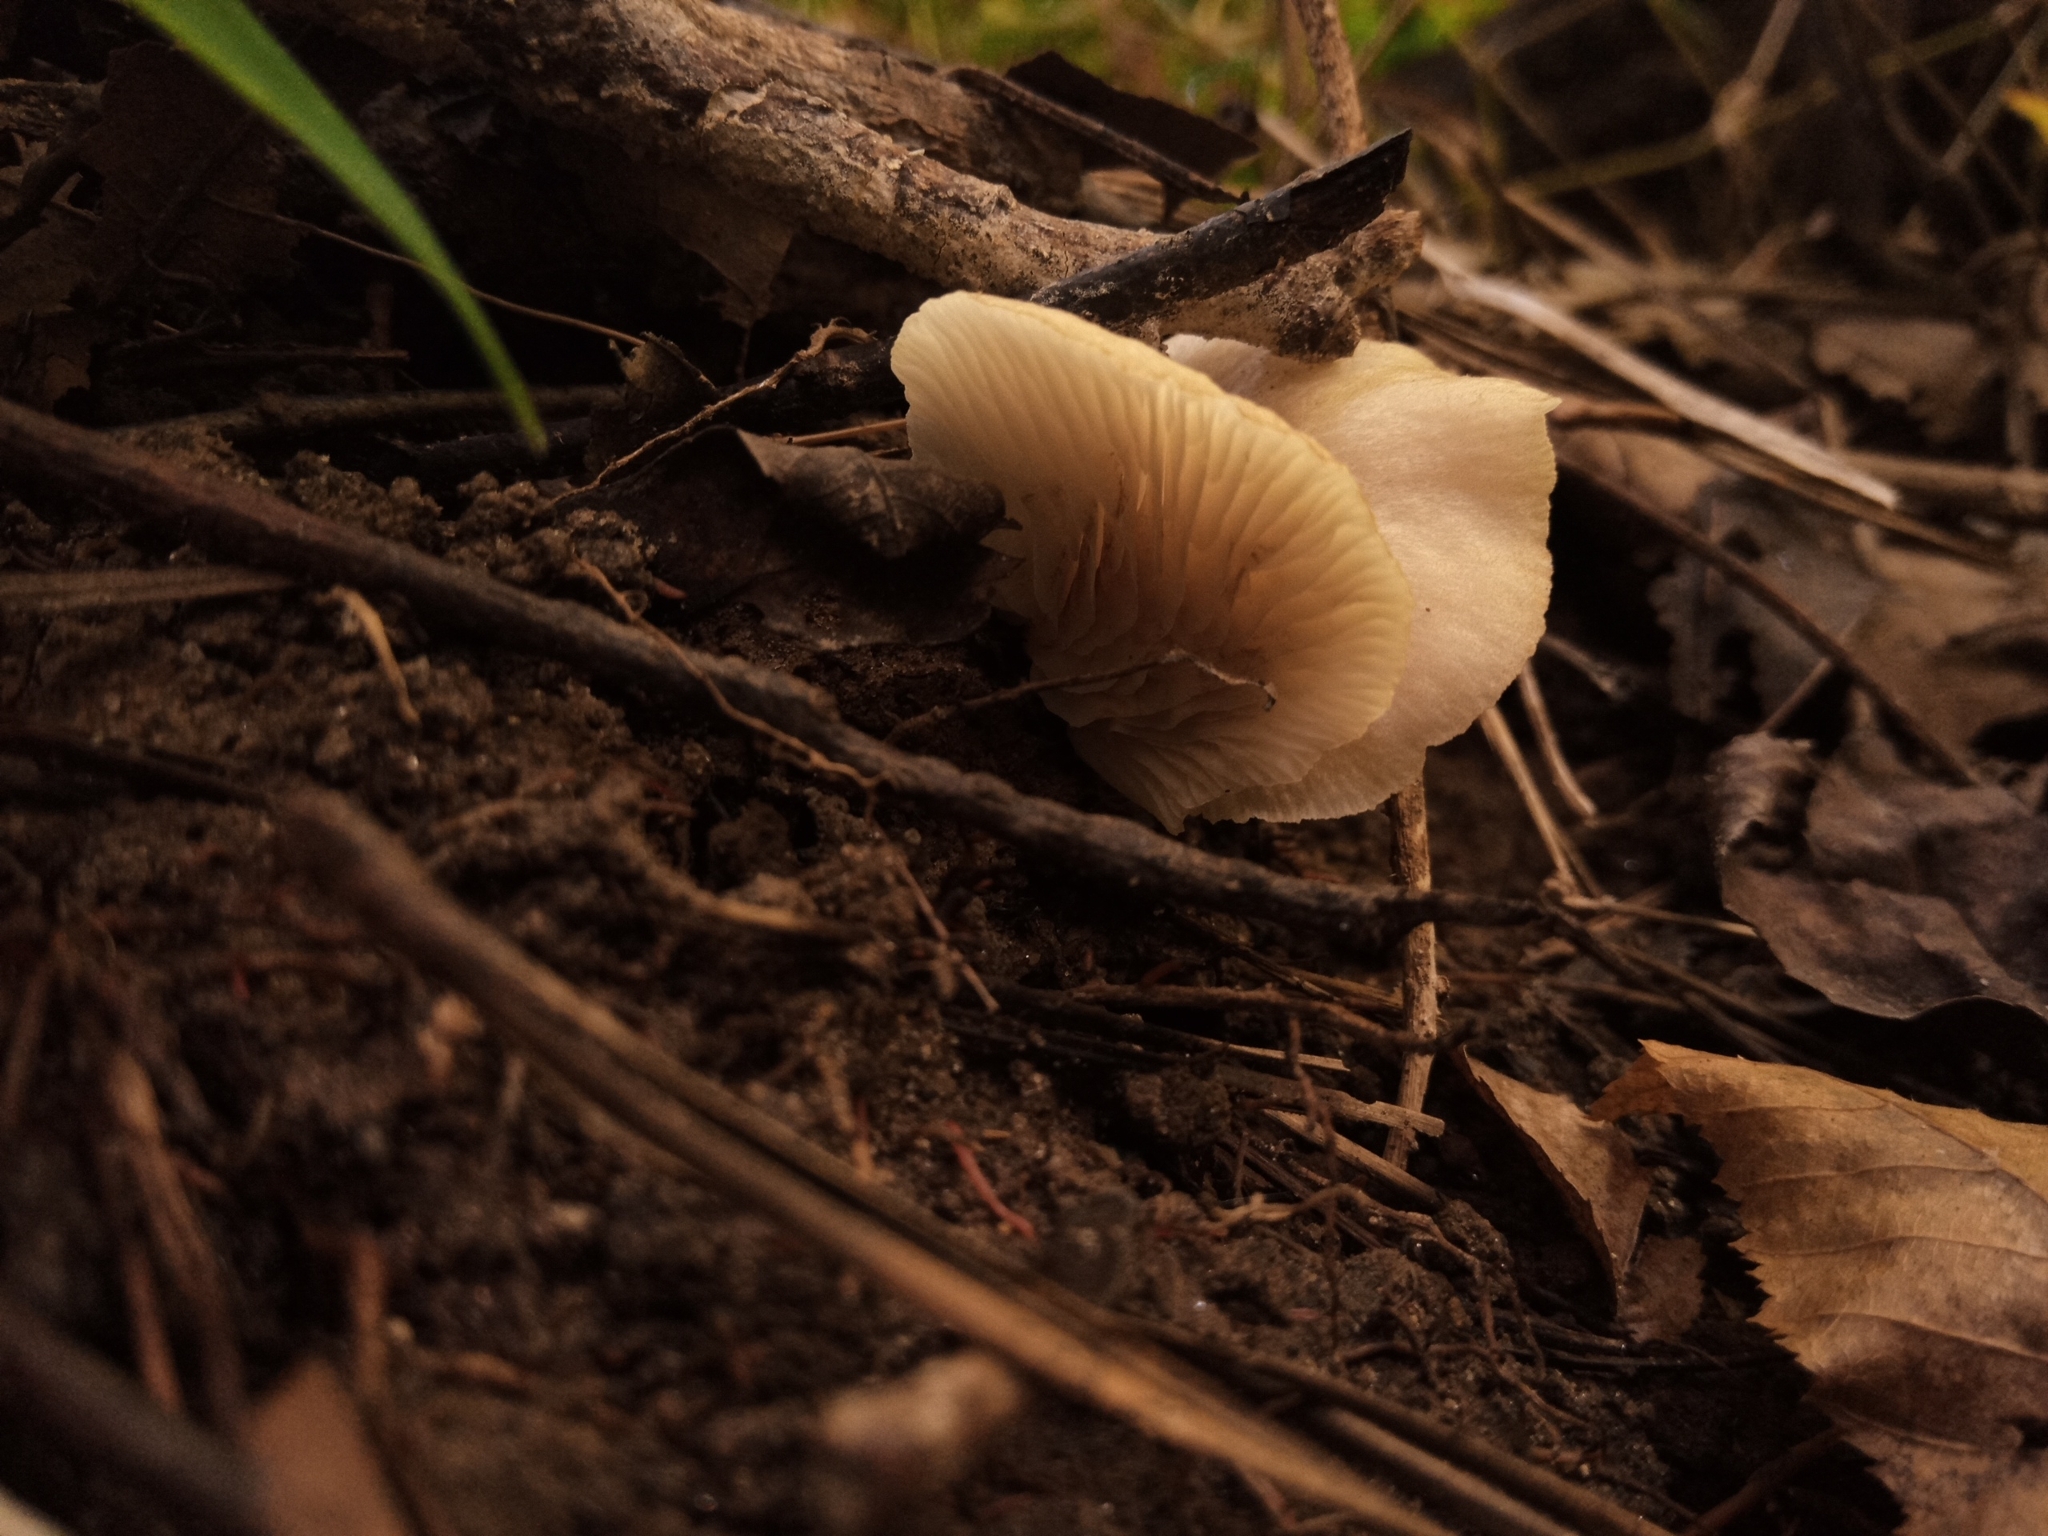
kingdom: Fungi
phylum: Basidiomycota
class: Agaricomycetes
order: Agaricales
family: Crepidotaceae
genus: Crepidotus
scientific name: Crepidotus mollis
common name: Peeling oysterling
